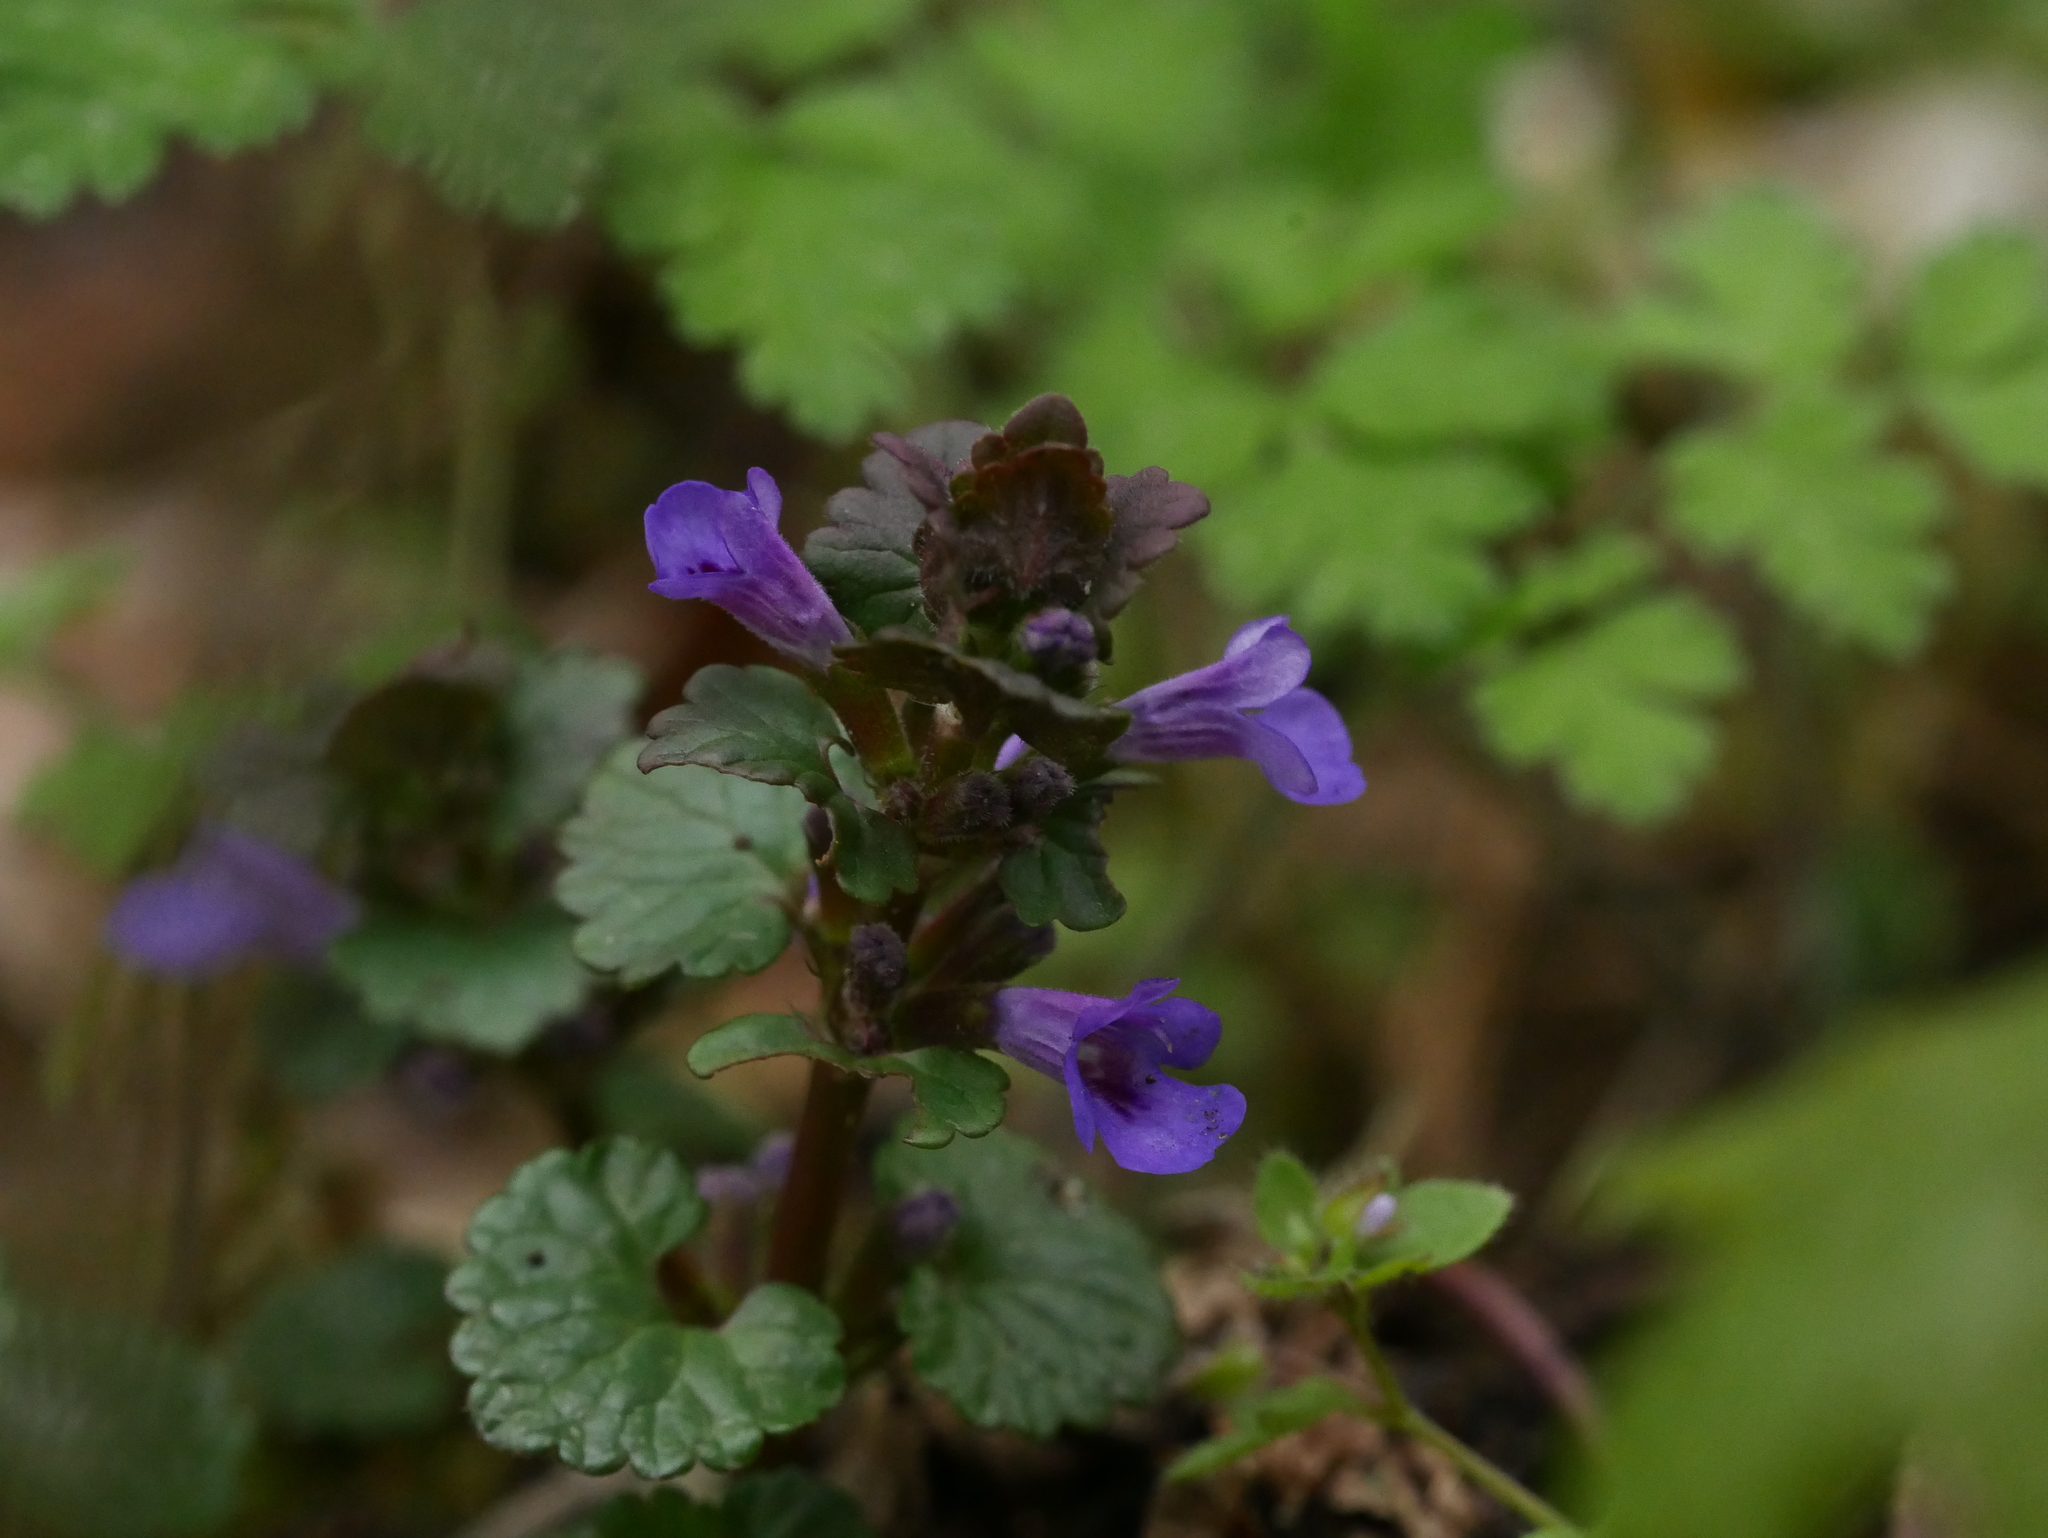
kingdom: Plantae
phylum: Tracheophyta
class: Magnoliopsida
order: Lamiales
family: Lamiaceae
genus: Glechoma
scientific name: Glechoma hederacea
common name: Ground ivy
